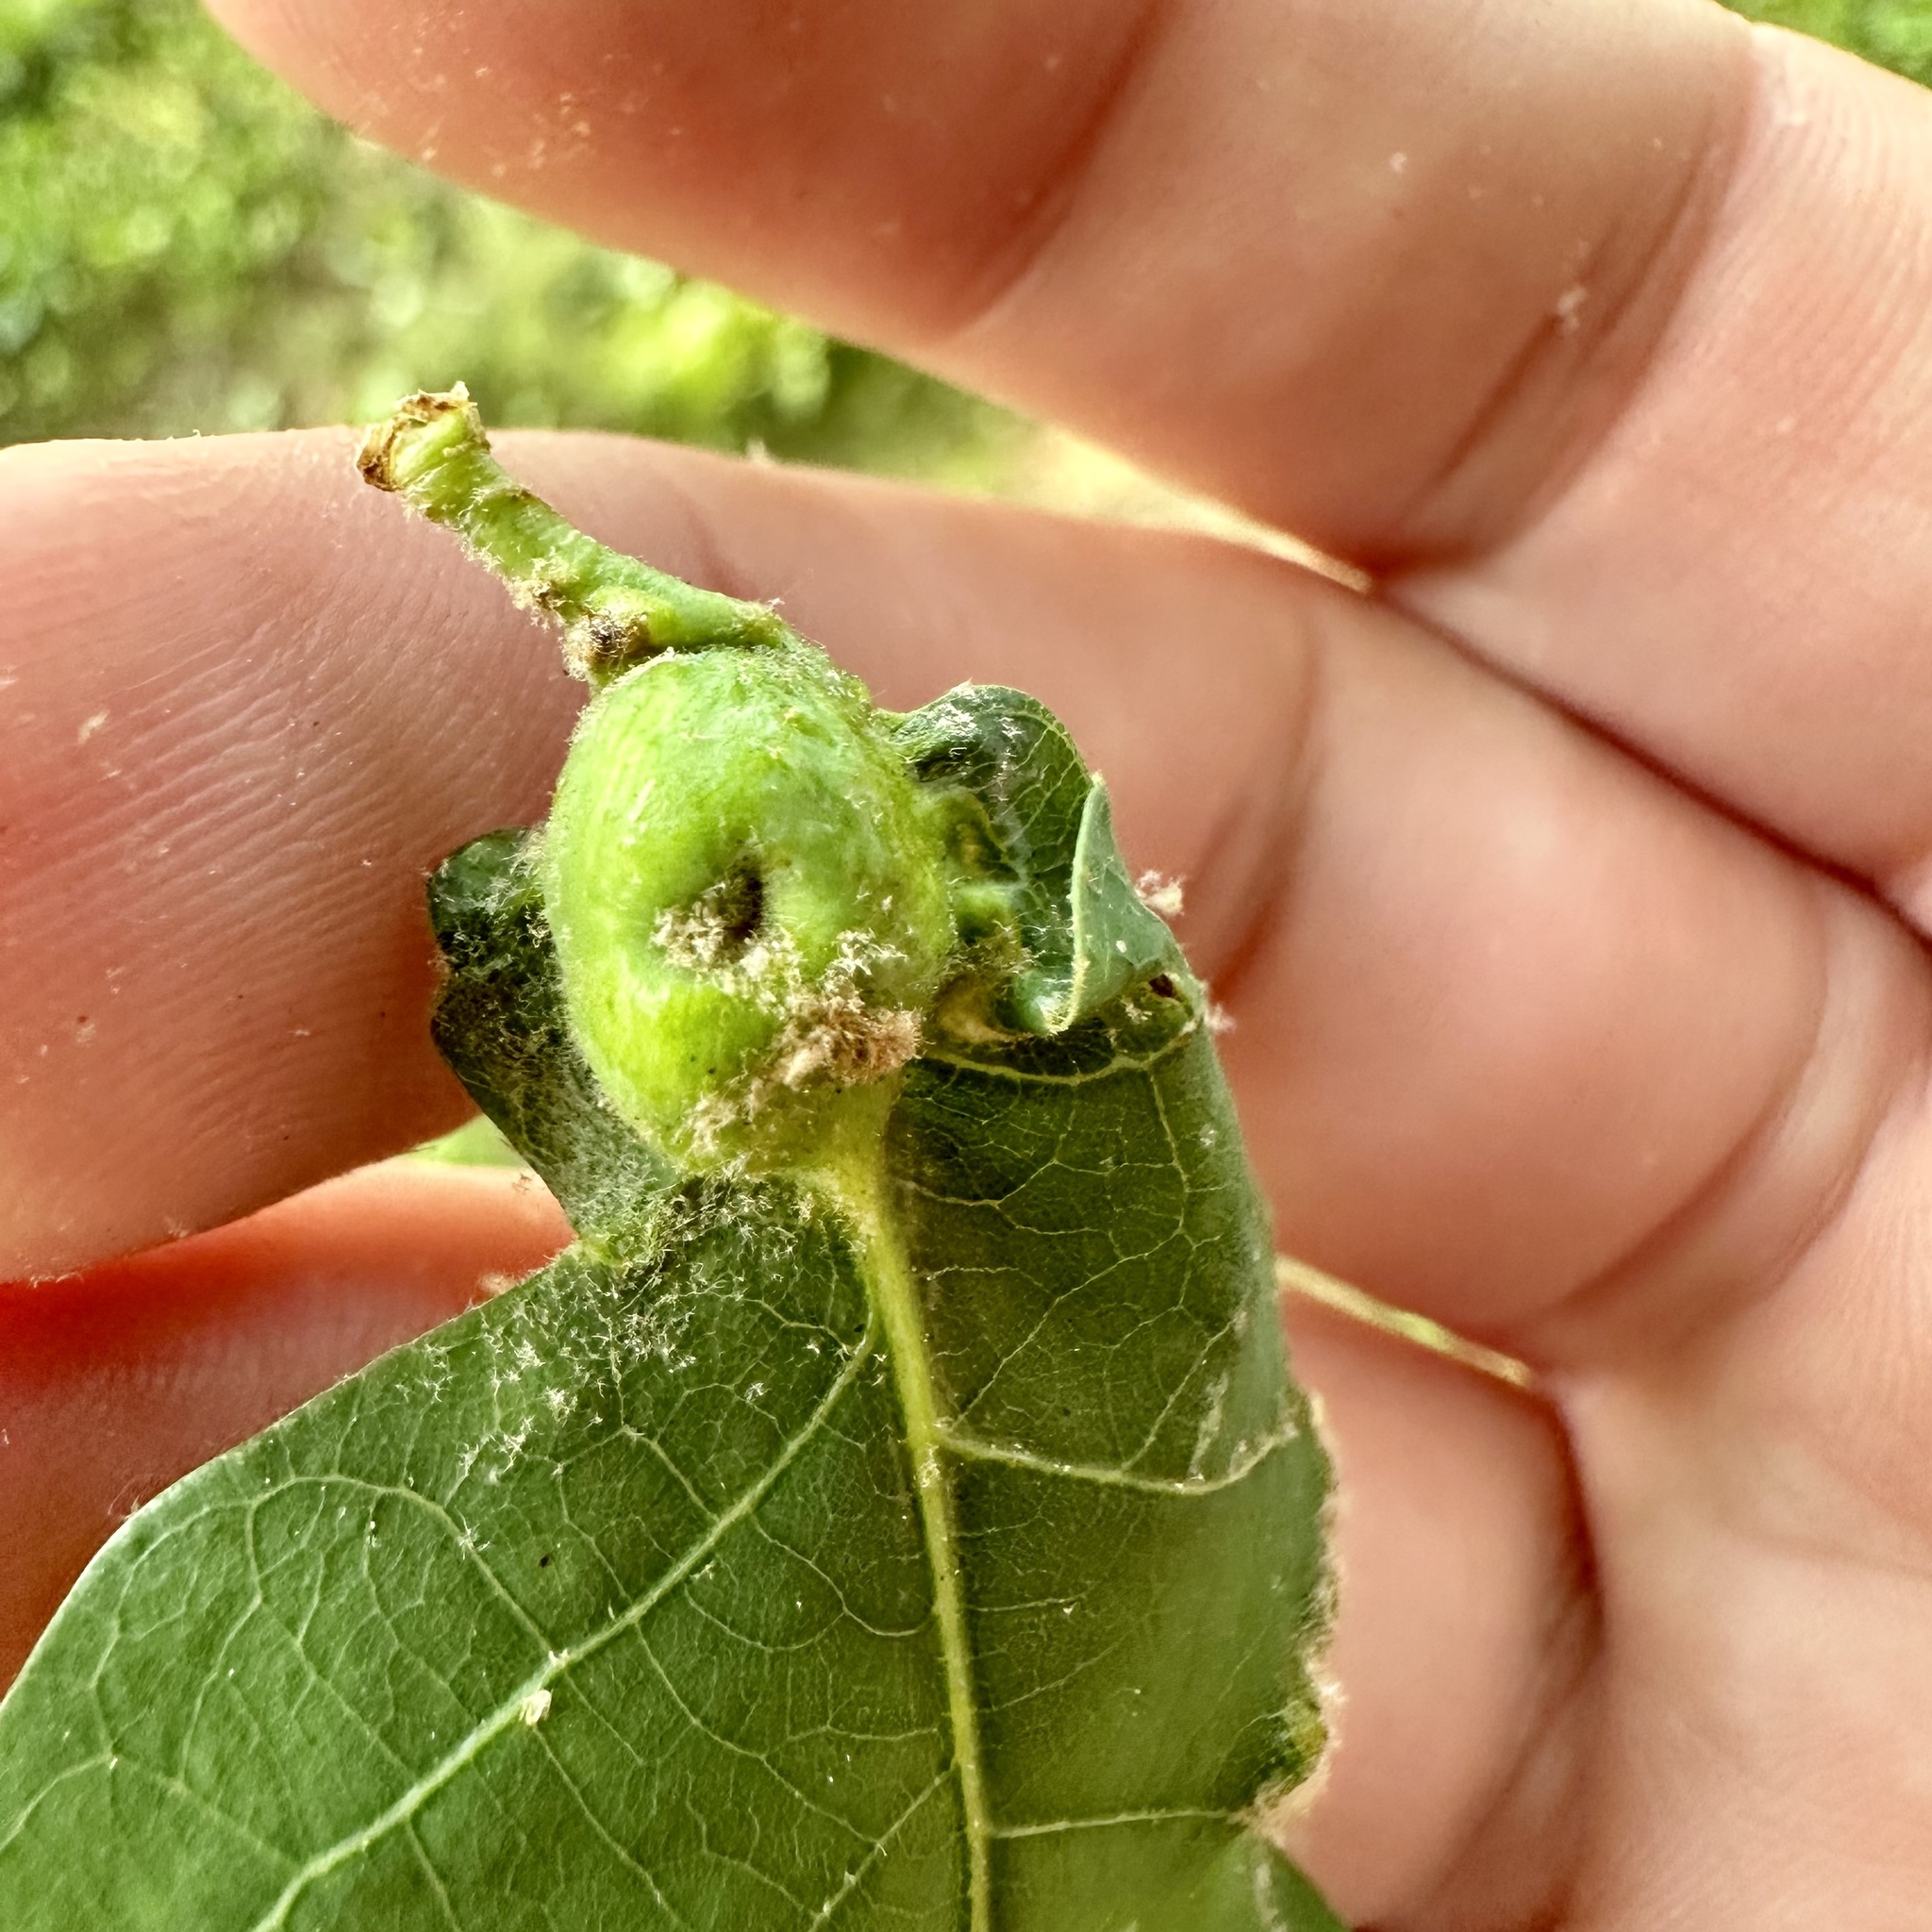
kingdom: Animalia
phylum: Arthropoda
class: Insecta
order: Hymenoptera
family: Cynipidae
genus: Andricus
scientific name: Andricus
